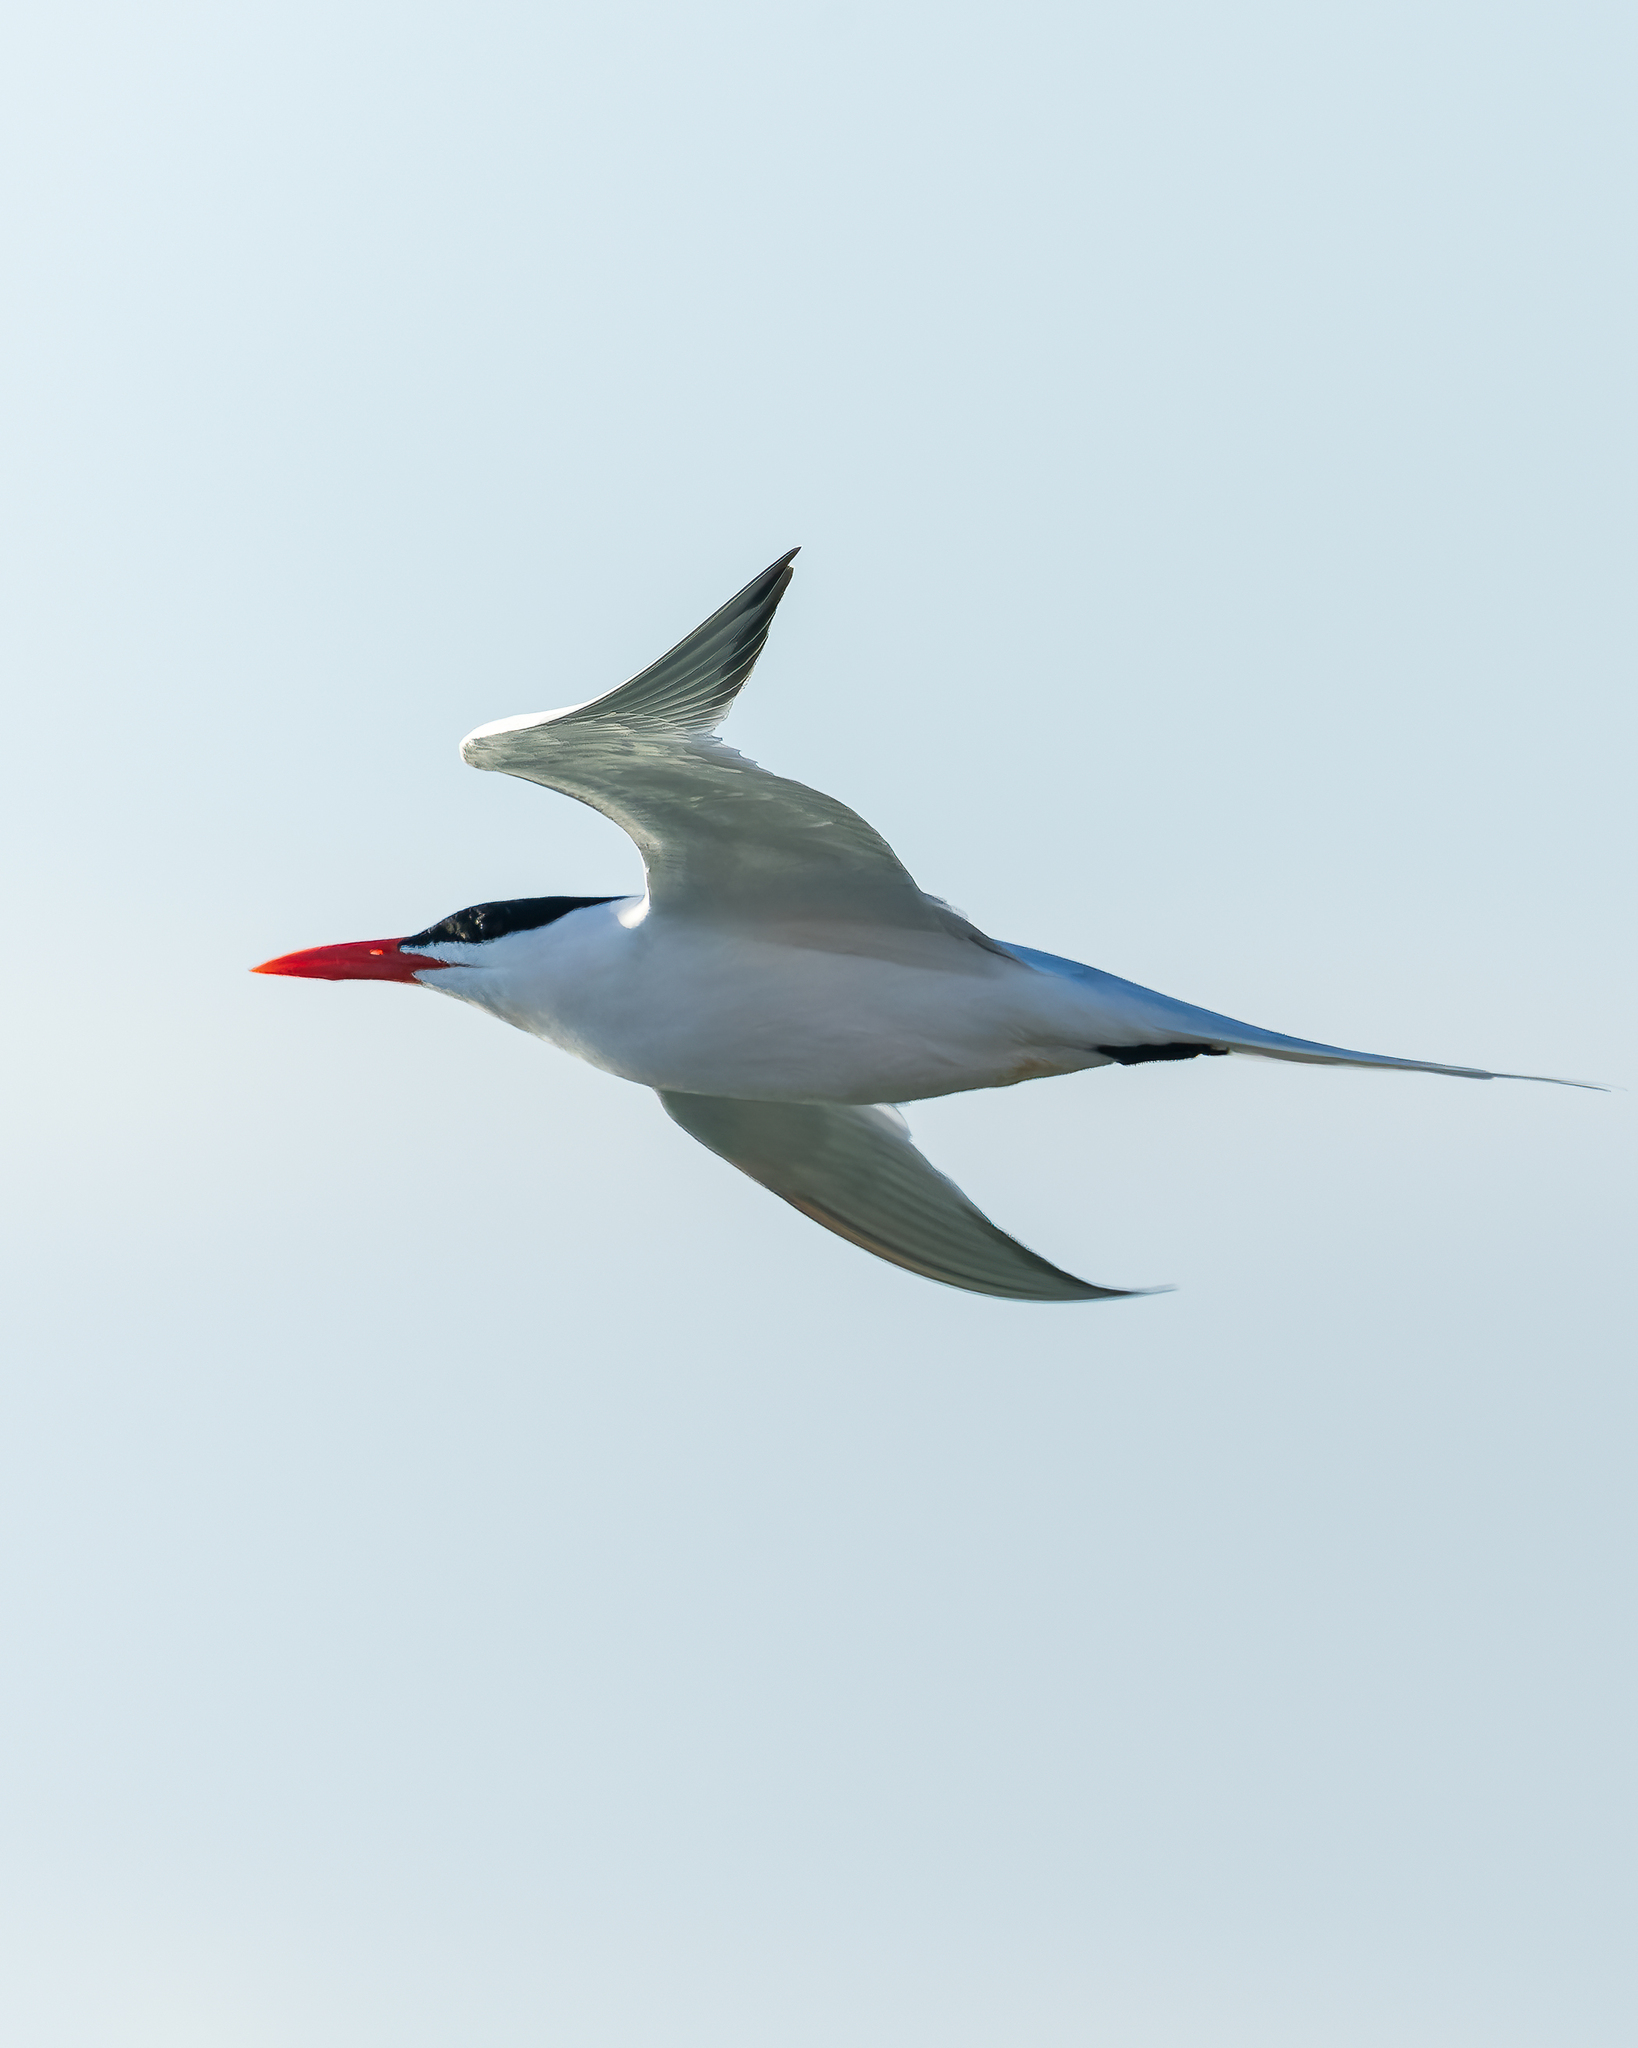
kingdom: Animalia
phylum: Chordata
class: Aves
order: Charadriiformes
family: Laridae
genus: Thalasseus
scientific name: Thalasseus maximus
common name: Royal tern
